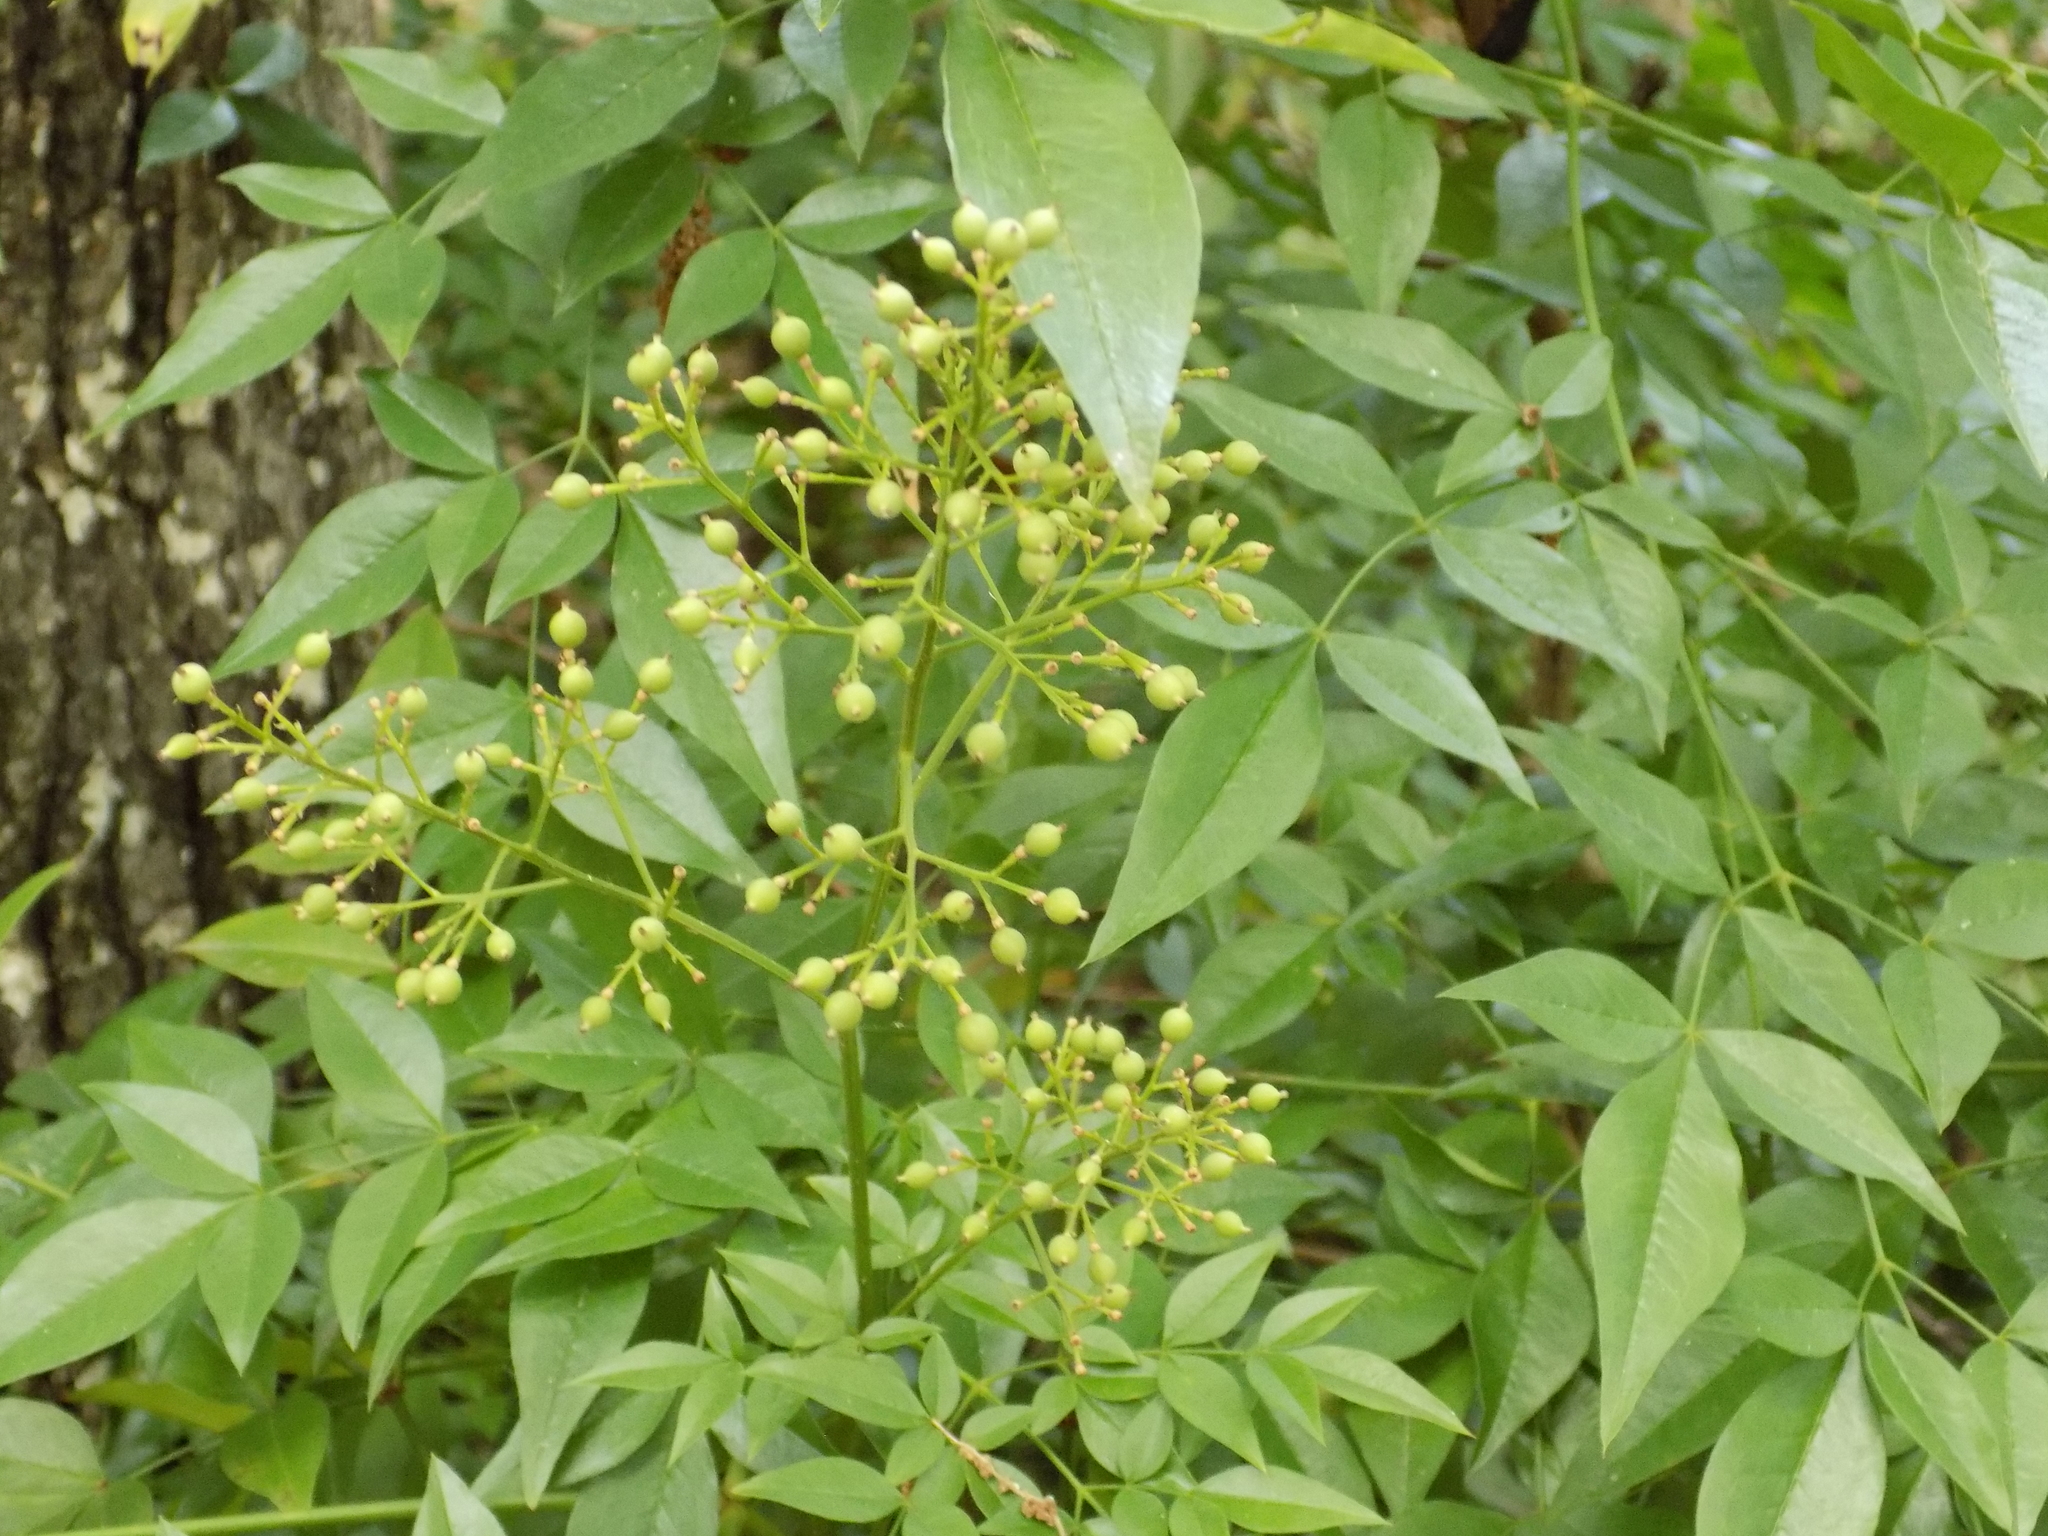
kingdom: Plantae
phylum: Tracheophyta
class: Magnoliopsida
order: Ranunculales
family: Berberidaceae
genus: Nandina
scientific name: Nandina domestica
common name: Sacred bamboo
